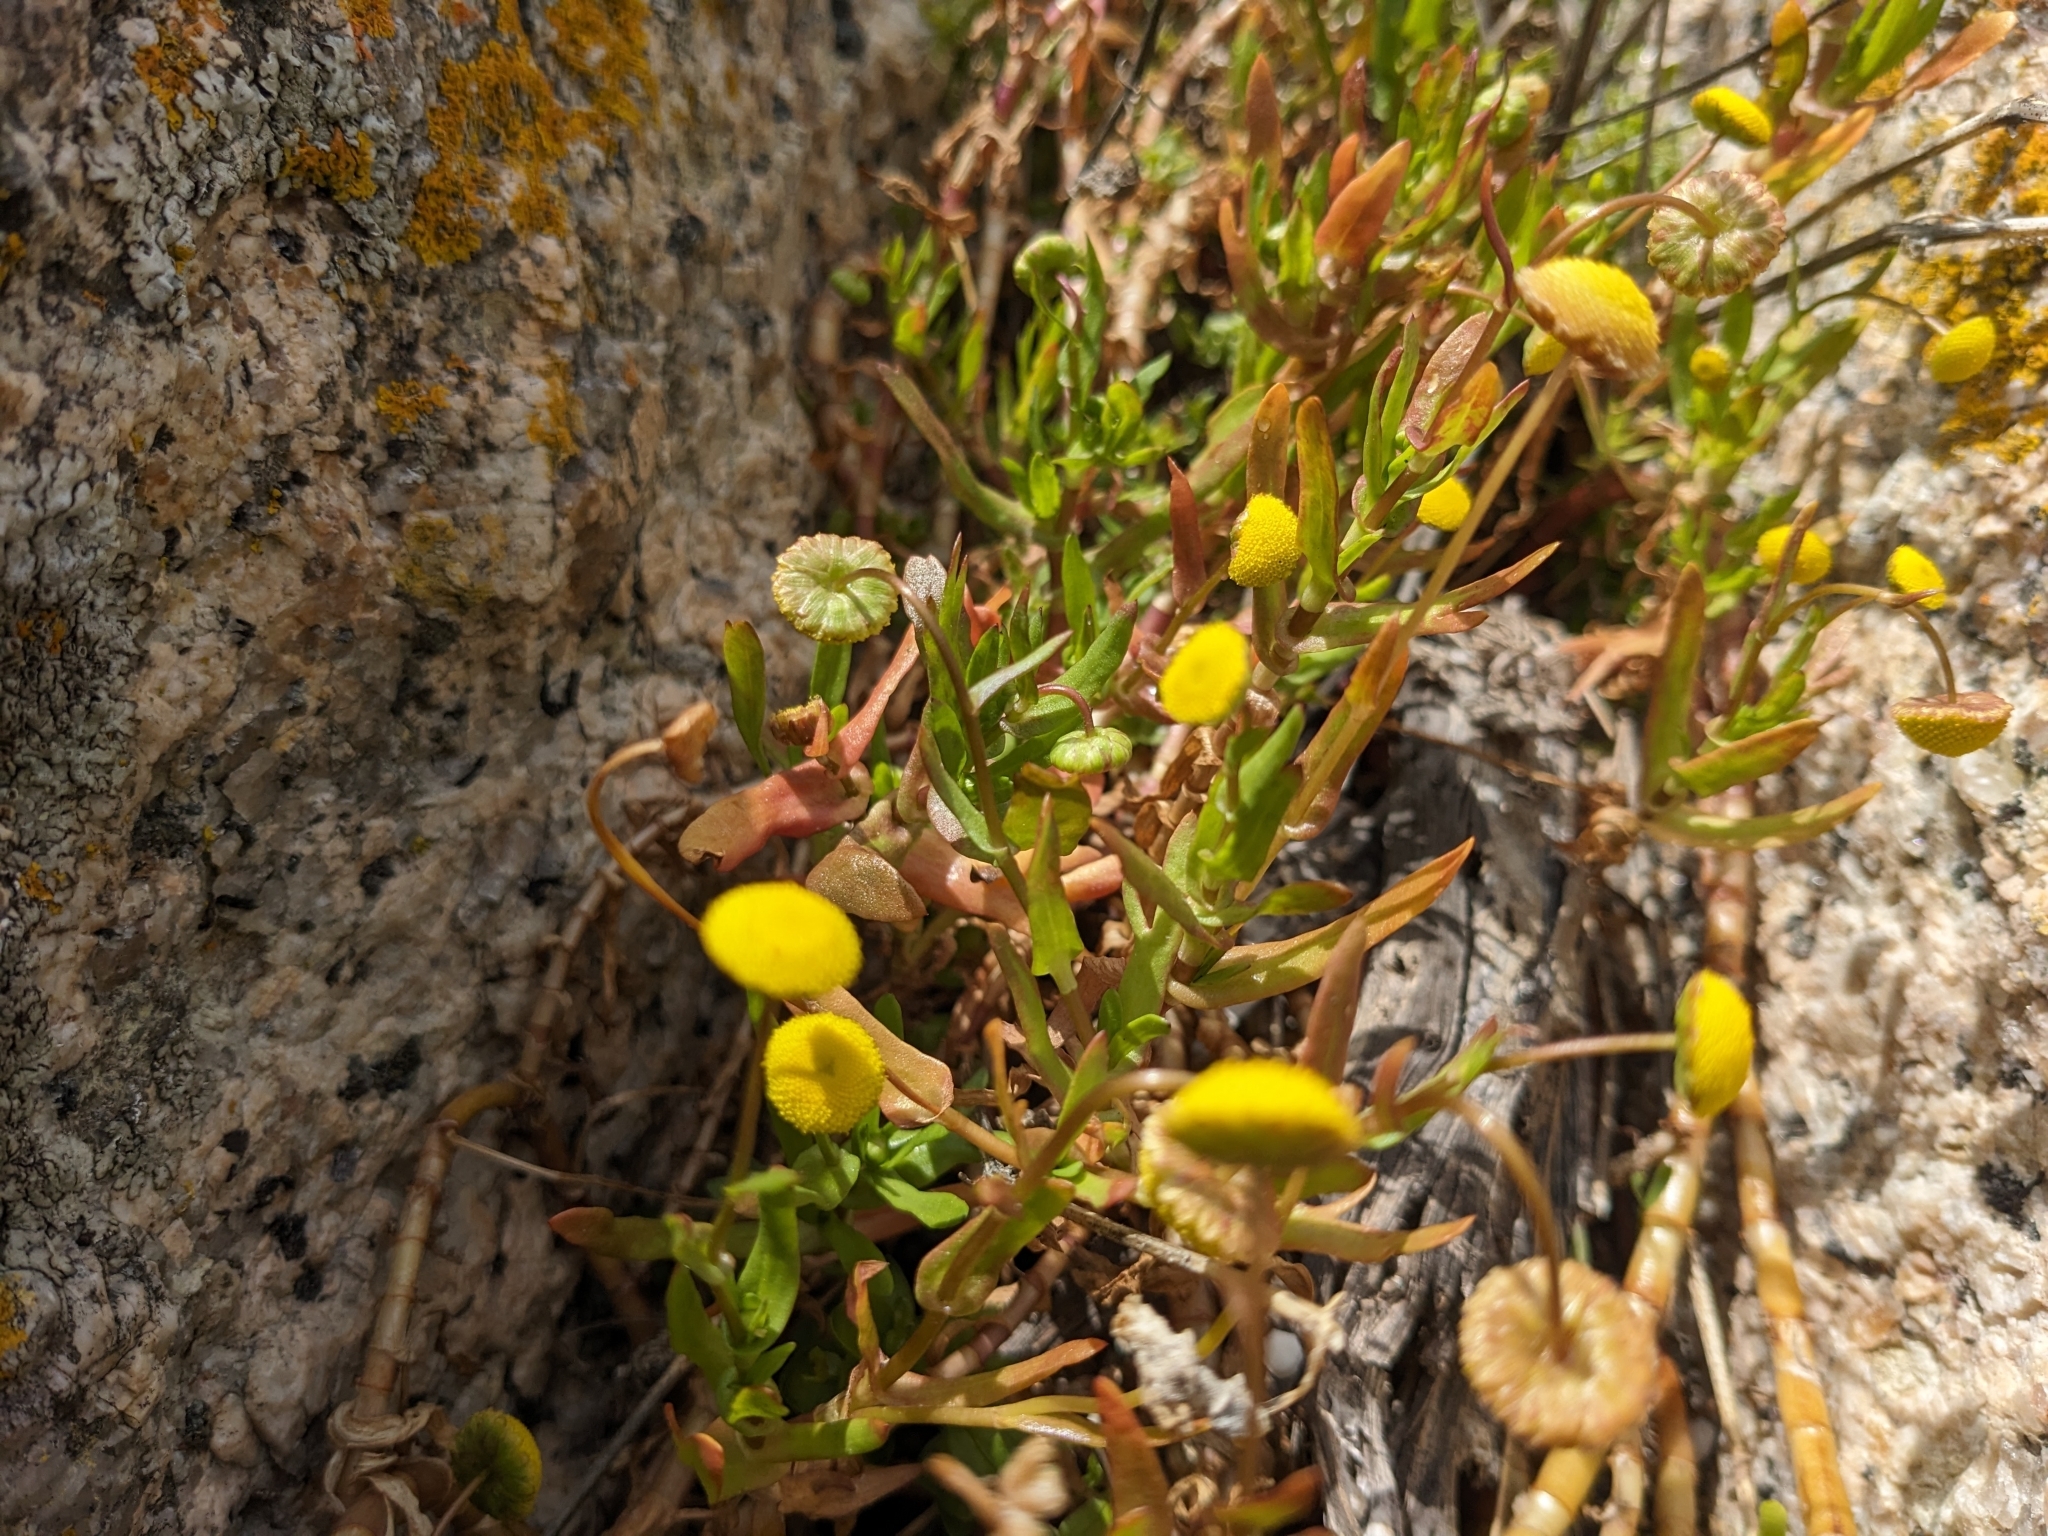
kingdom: Plantae
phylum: Tracheophyta
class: Magnoliopsida
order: Asterales
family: Asteraceae
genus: Cotula
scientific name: Cotula coronopifolia
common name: Buttonweed
